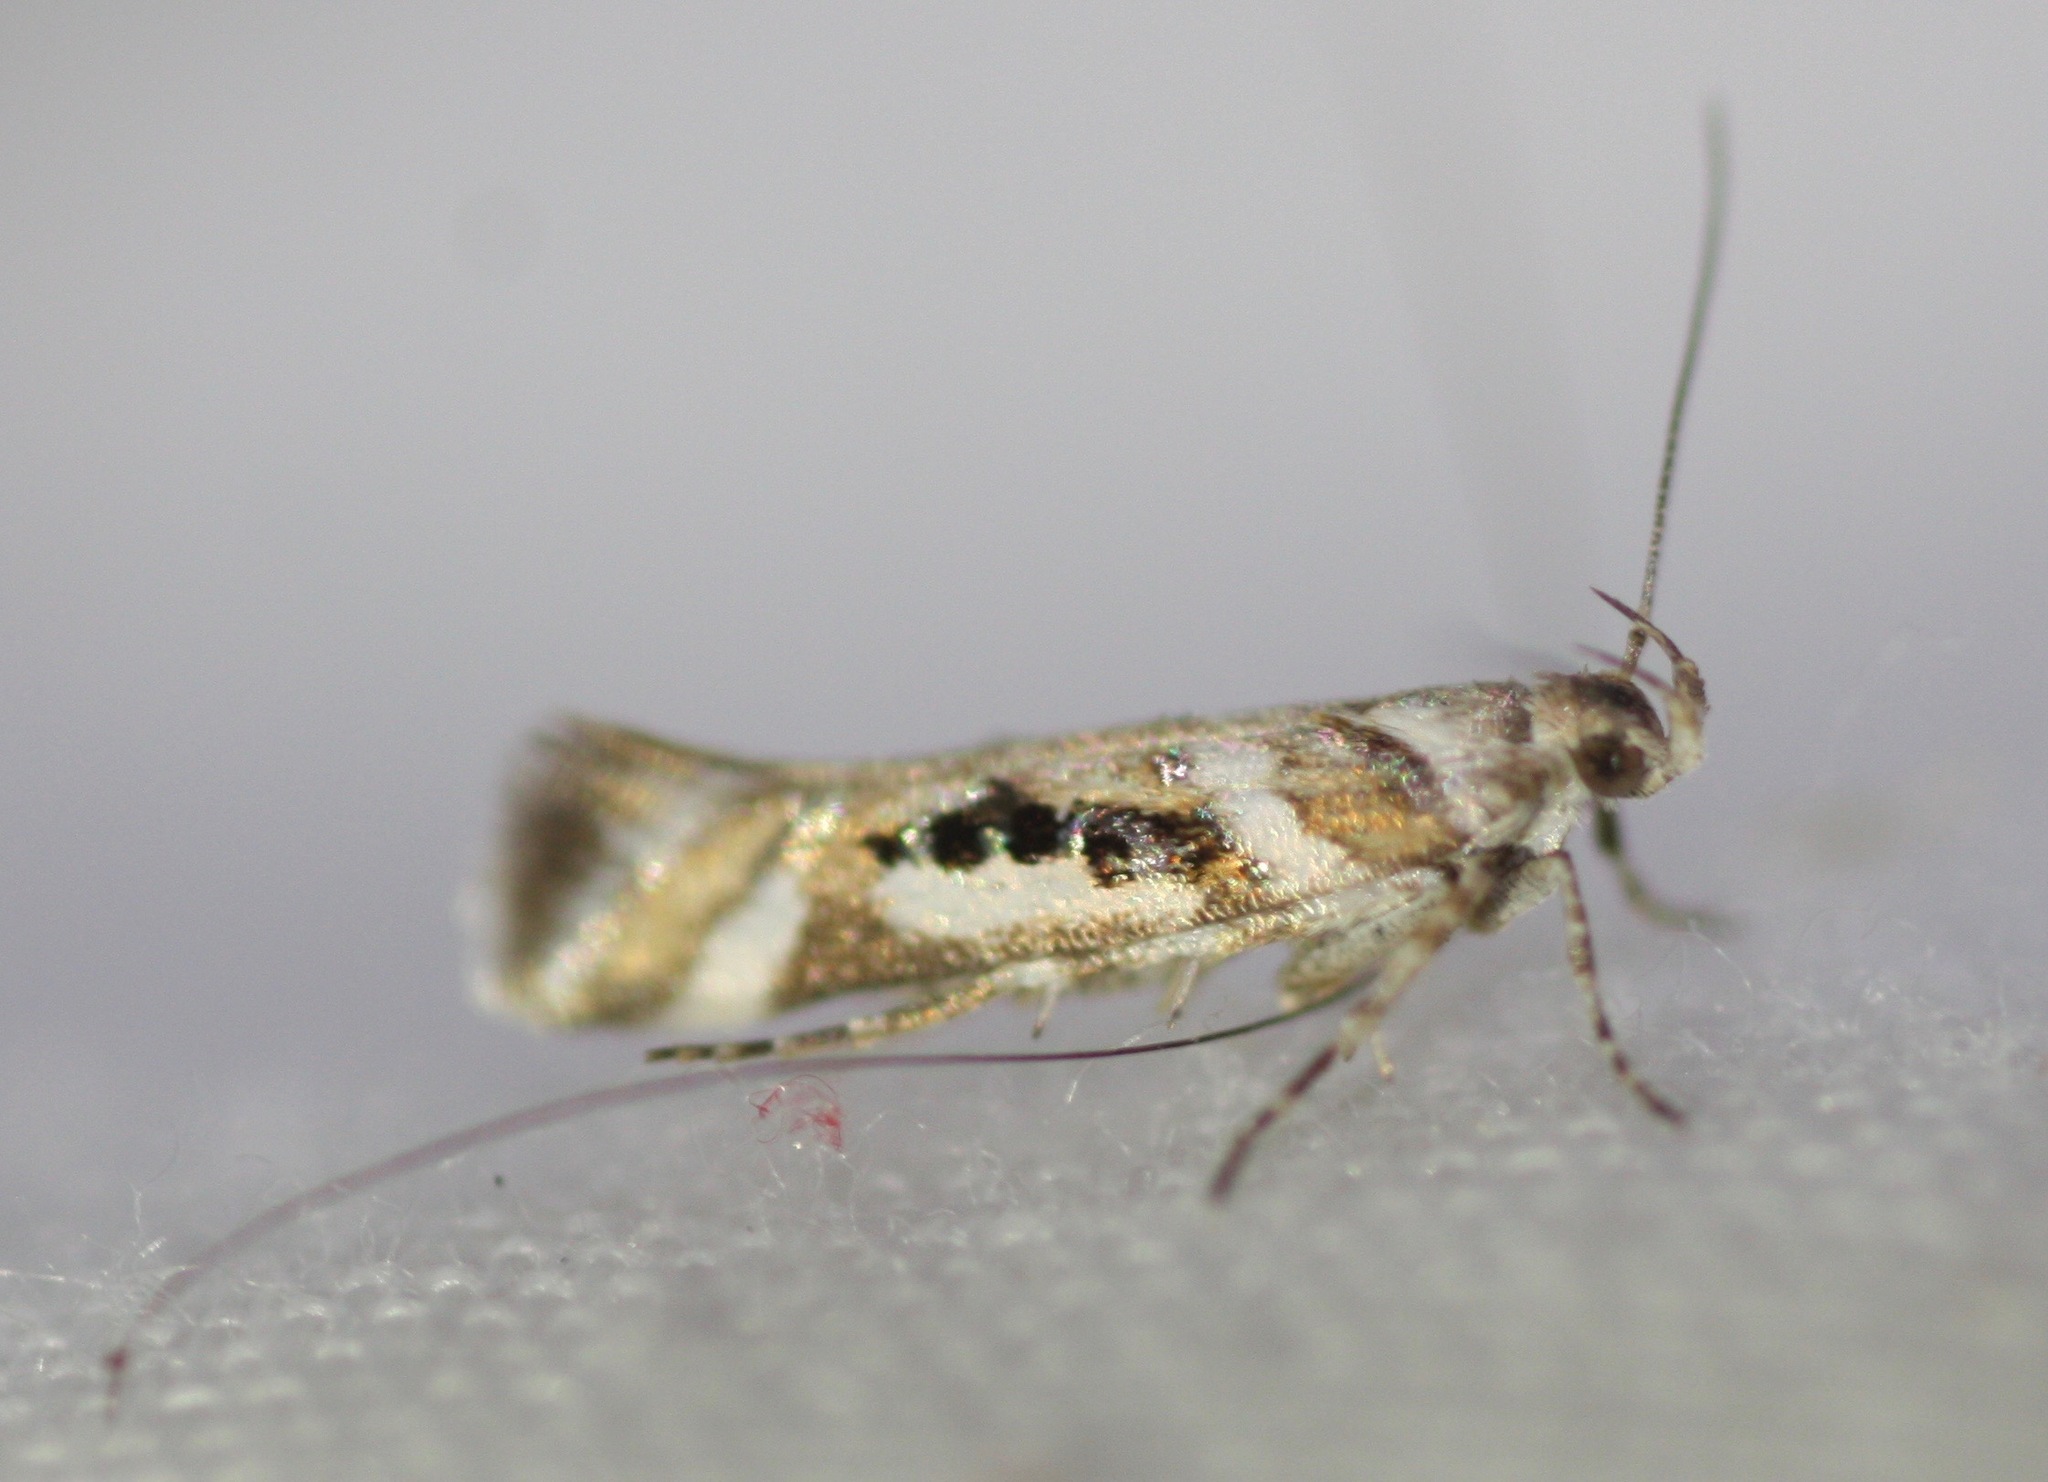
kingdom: Animalia
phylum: Arthropoda
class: Insecta
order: Lepidoptera
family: Gelechiidae
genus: Aristotelia
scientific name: Aristotelia elegantella
